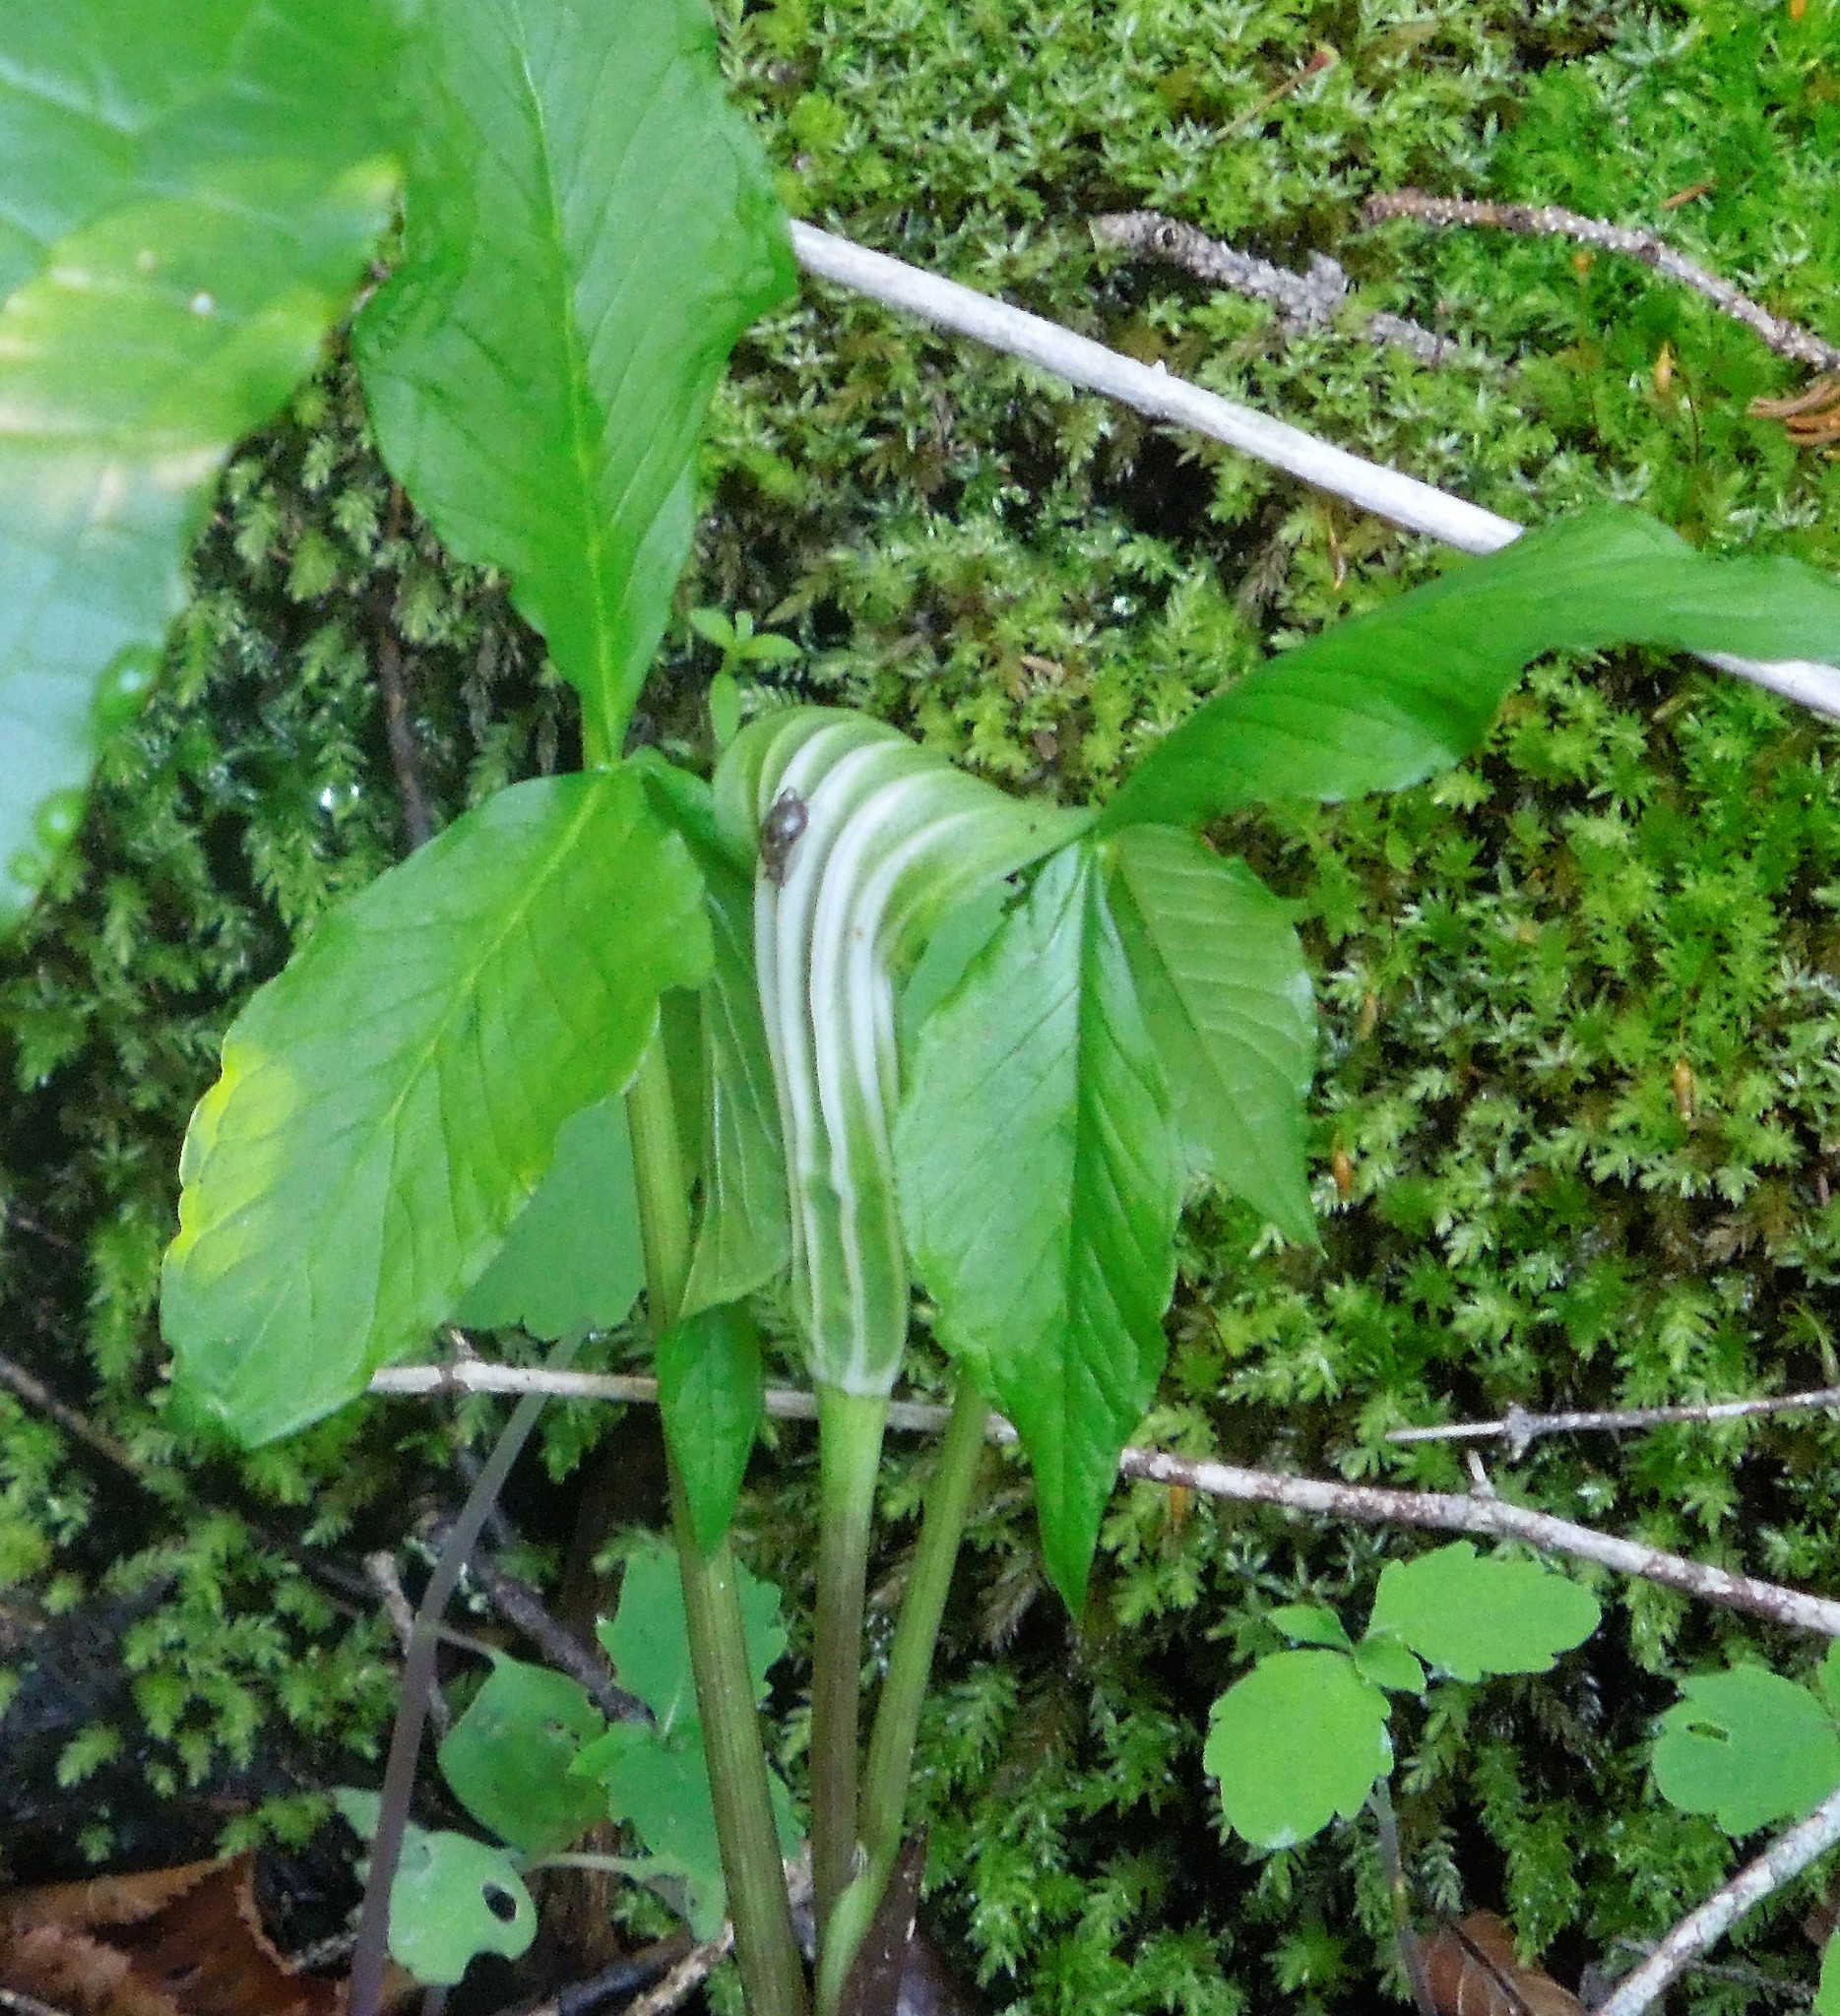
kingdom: Plantae
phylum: Tracheophyta
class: Liliopsida
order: Alismatales
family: Araceae
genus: Arisaema
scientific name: Arisaema stewardsonii
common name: Swamp jack-in-the-pulpit
